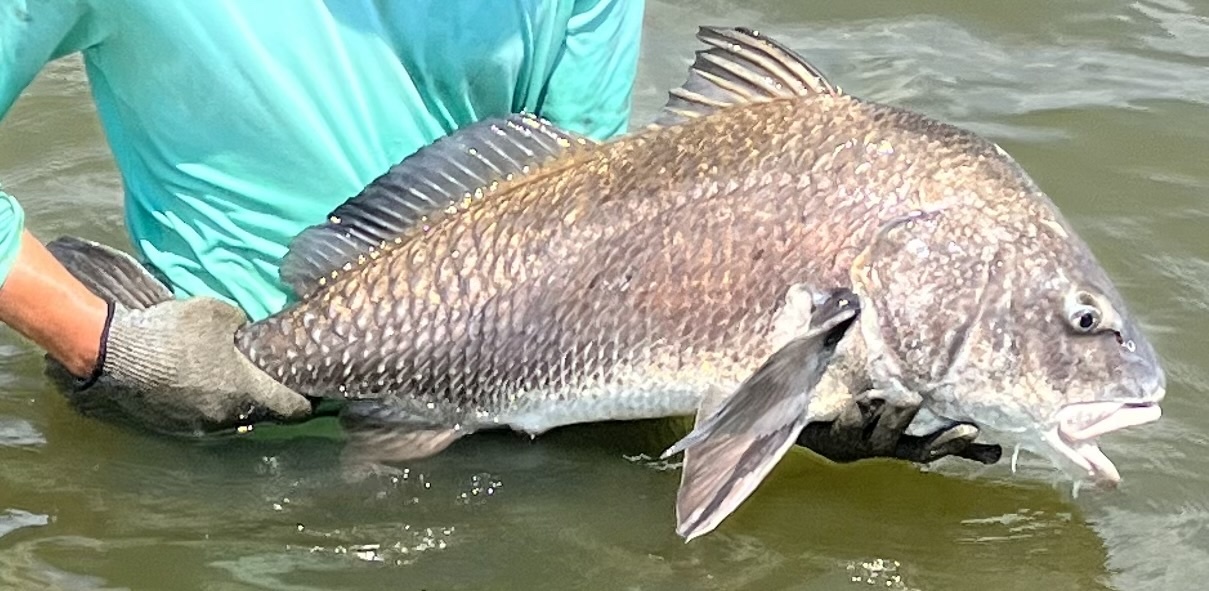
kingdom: Animalia
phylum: Chordata
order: Perciformes
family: Sciaenidae
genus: Pogonias
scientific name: Pogonias cromis
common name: Black drum
